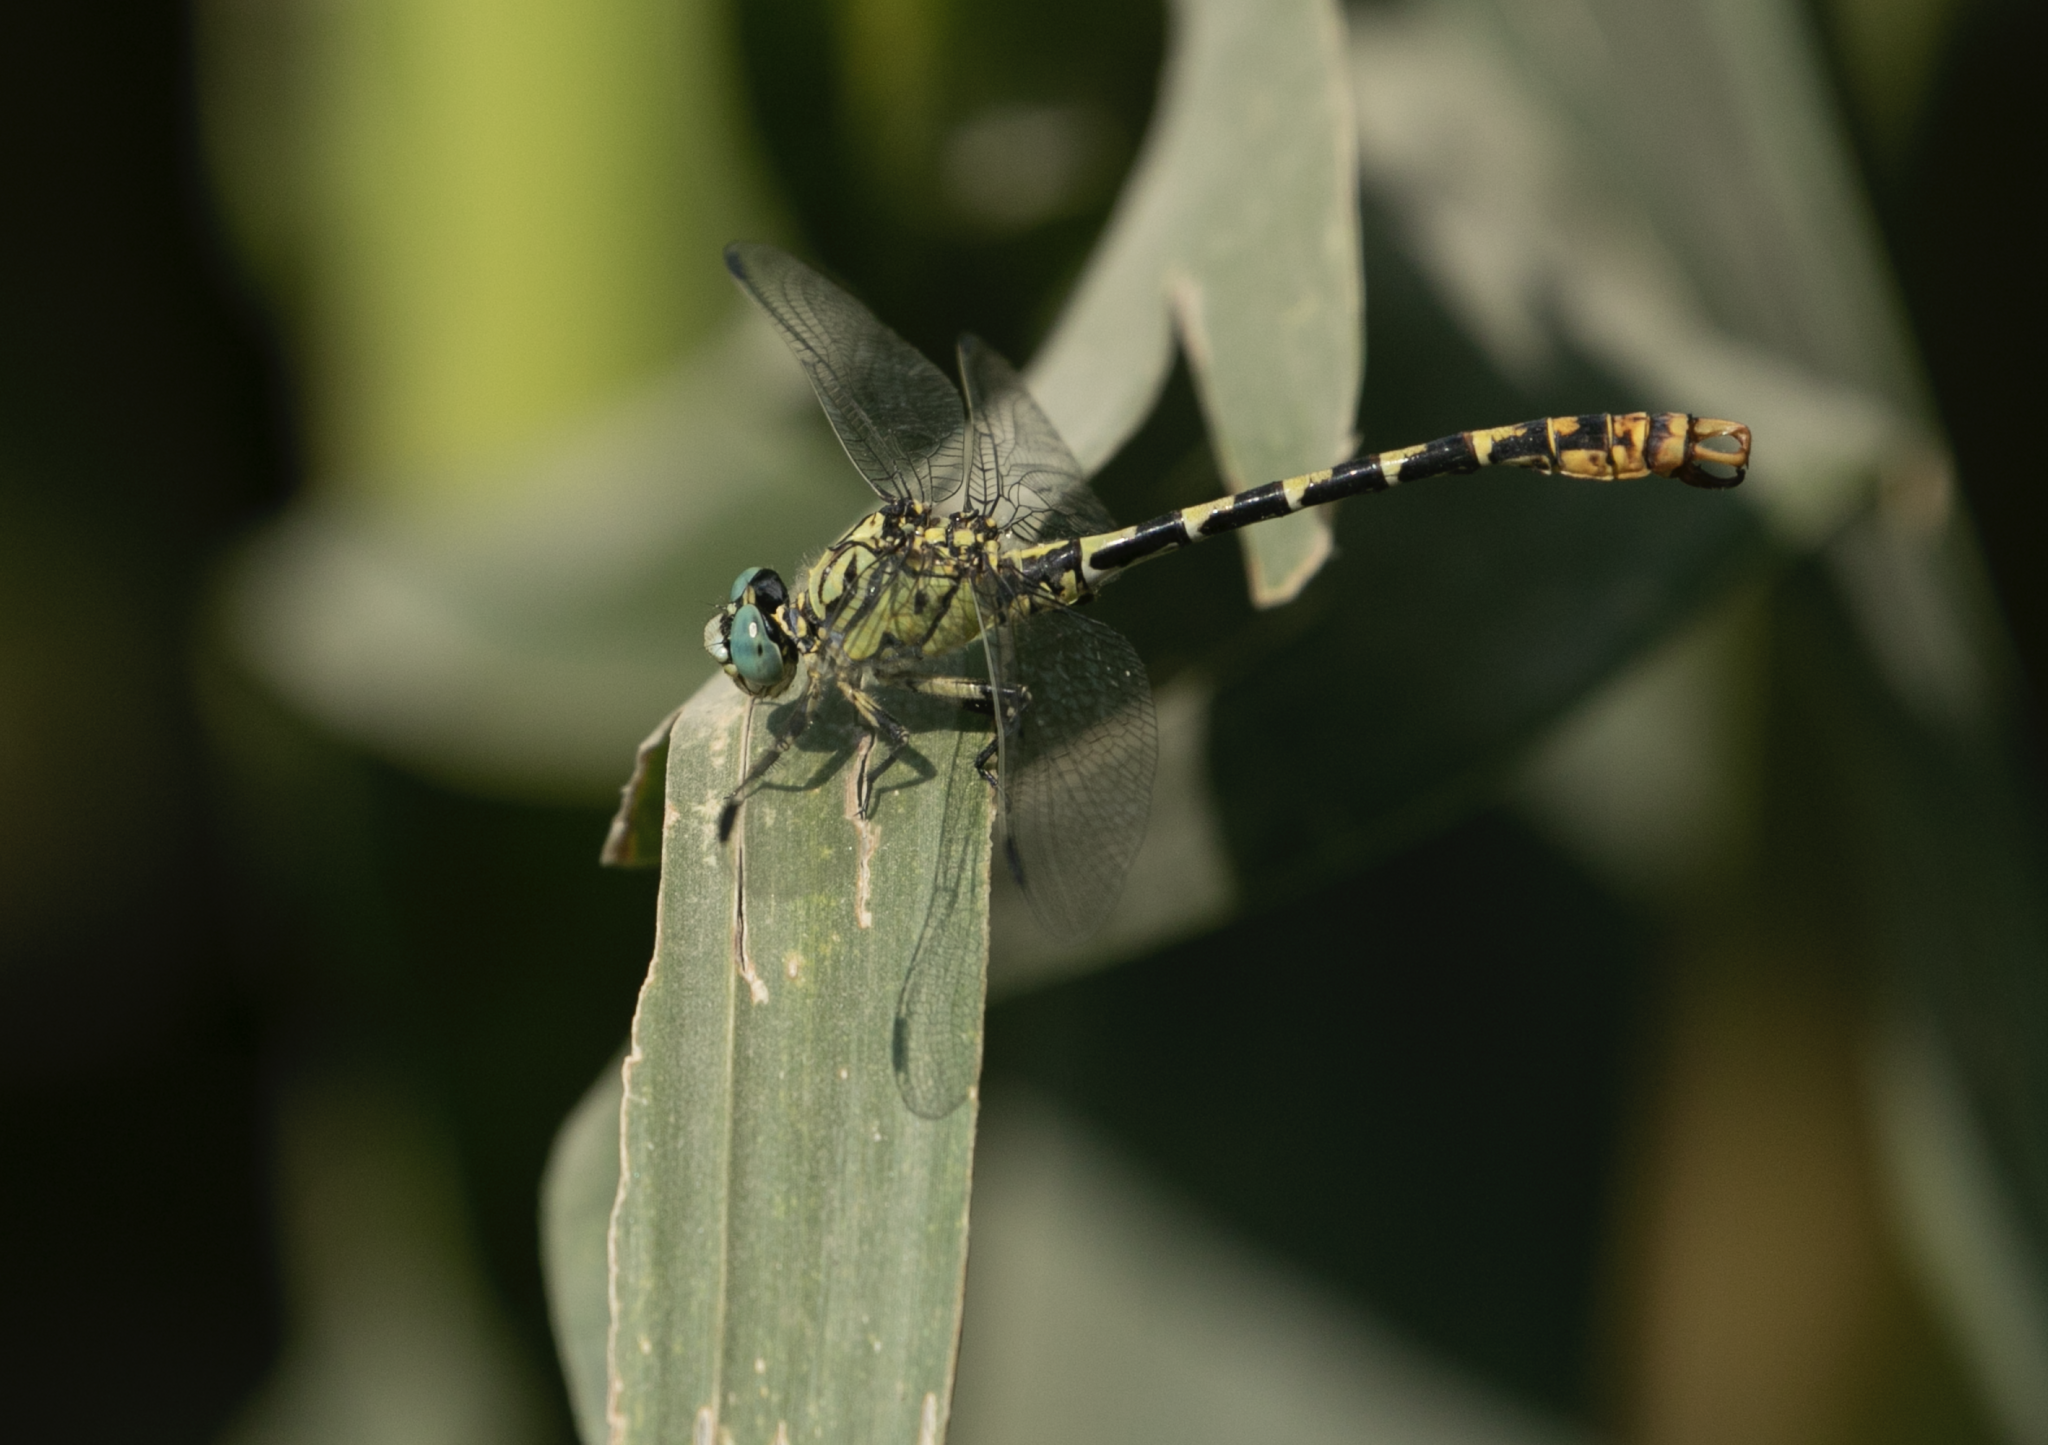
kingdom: Animalia
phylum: Arthropoda
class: Insecta
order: Odonata
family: Gomphidae
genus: Onychogomphus
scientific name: Onychogomphus forcipatus
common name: Small pincertail
